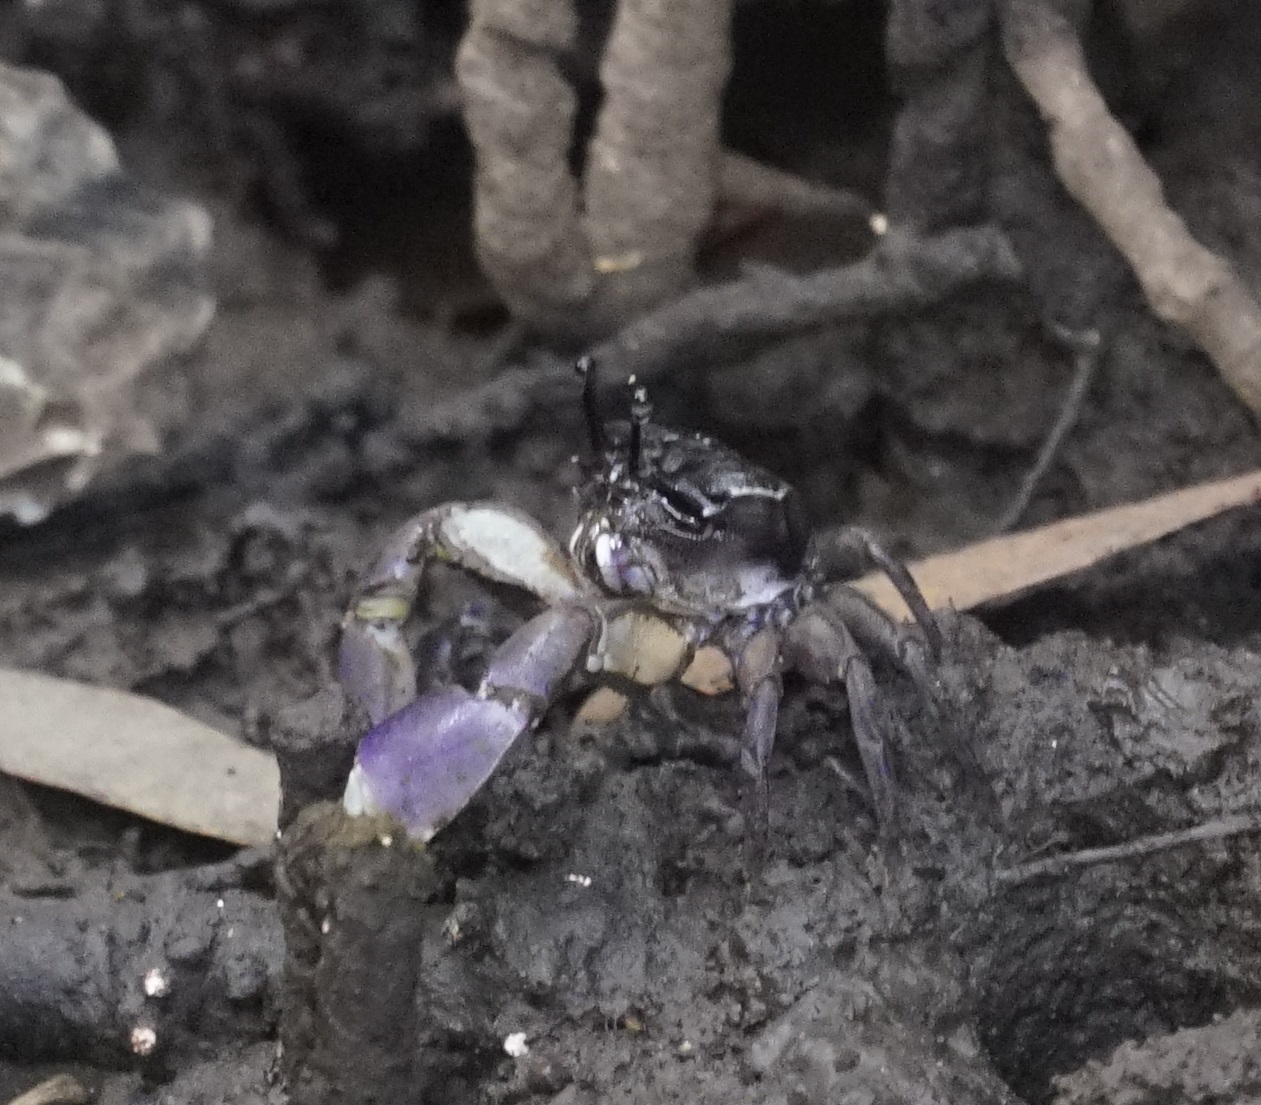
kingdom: Animalia
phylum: Arthropoda
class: Malacostraca
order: Decapoda
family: Heloeciidae
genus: Heloecius
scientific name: Heloecius cordiformis
